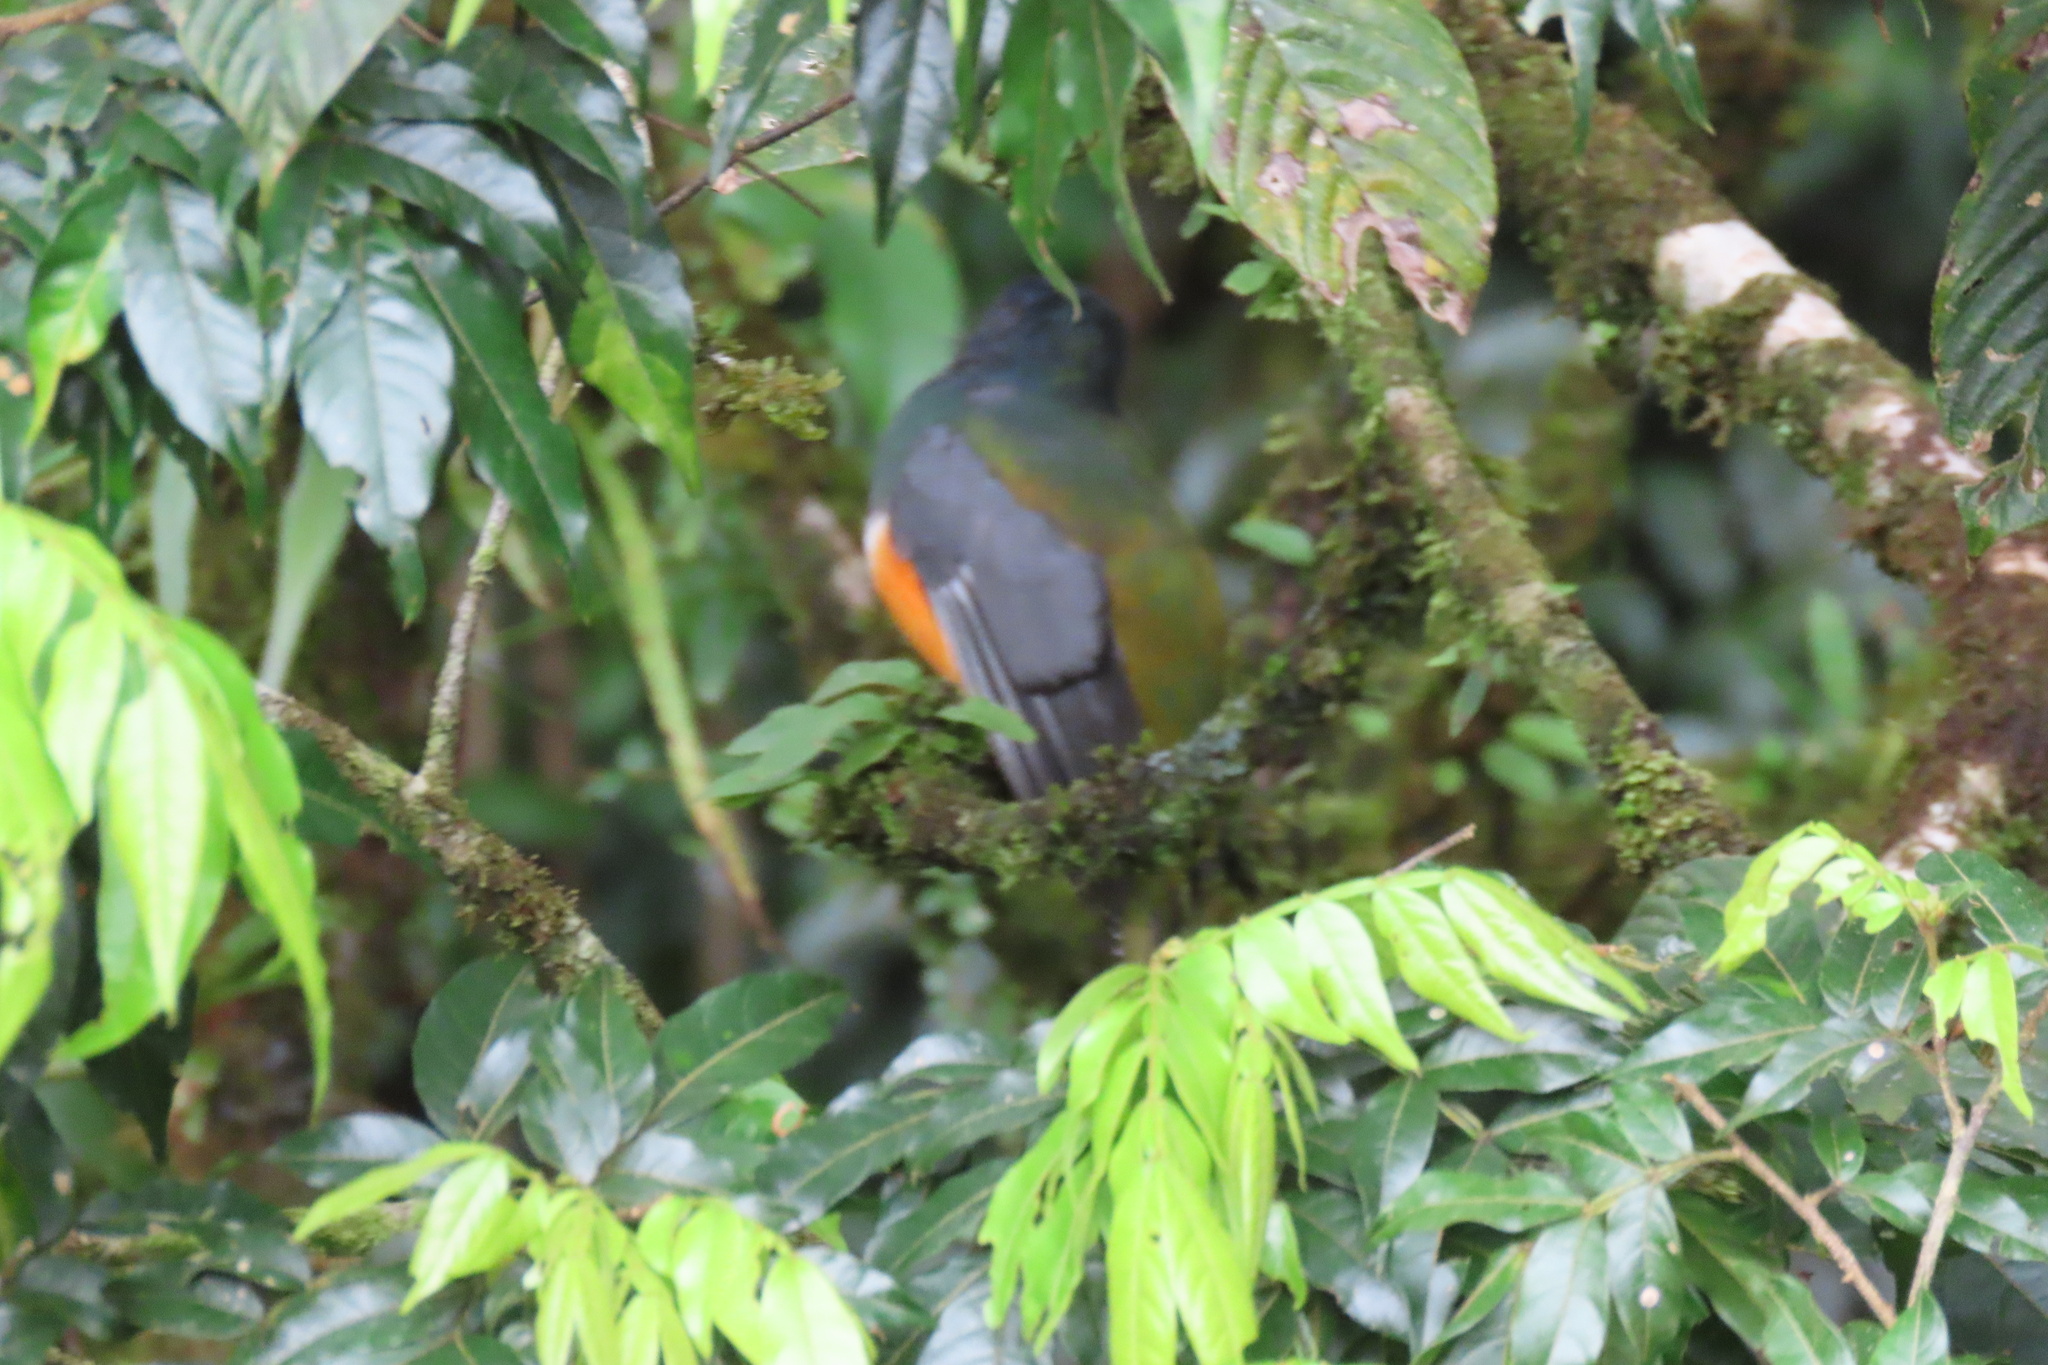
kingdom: Animalia
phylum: Chordata
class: Aves
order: Trogoniformes
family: Trogonidae
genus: Trogon
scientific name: Trogon collaris
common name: Collared trogon
